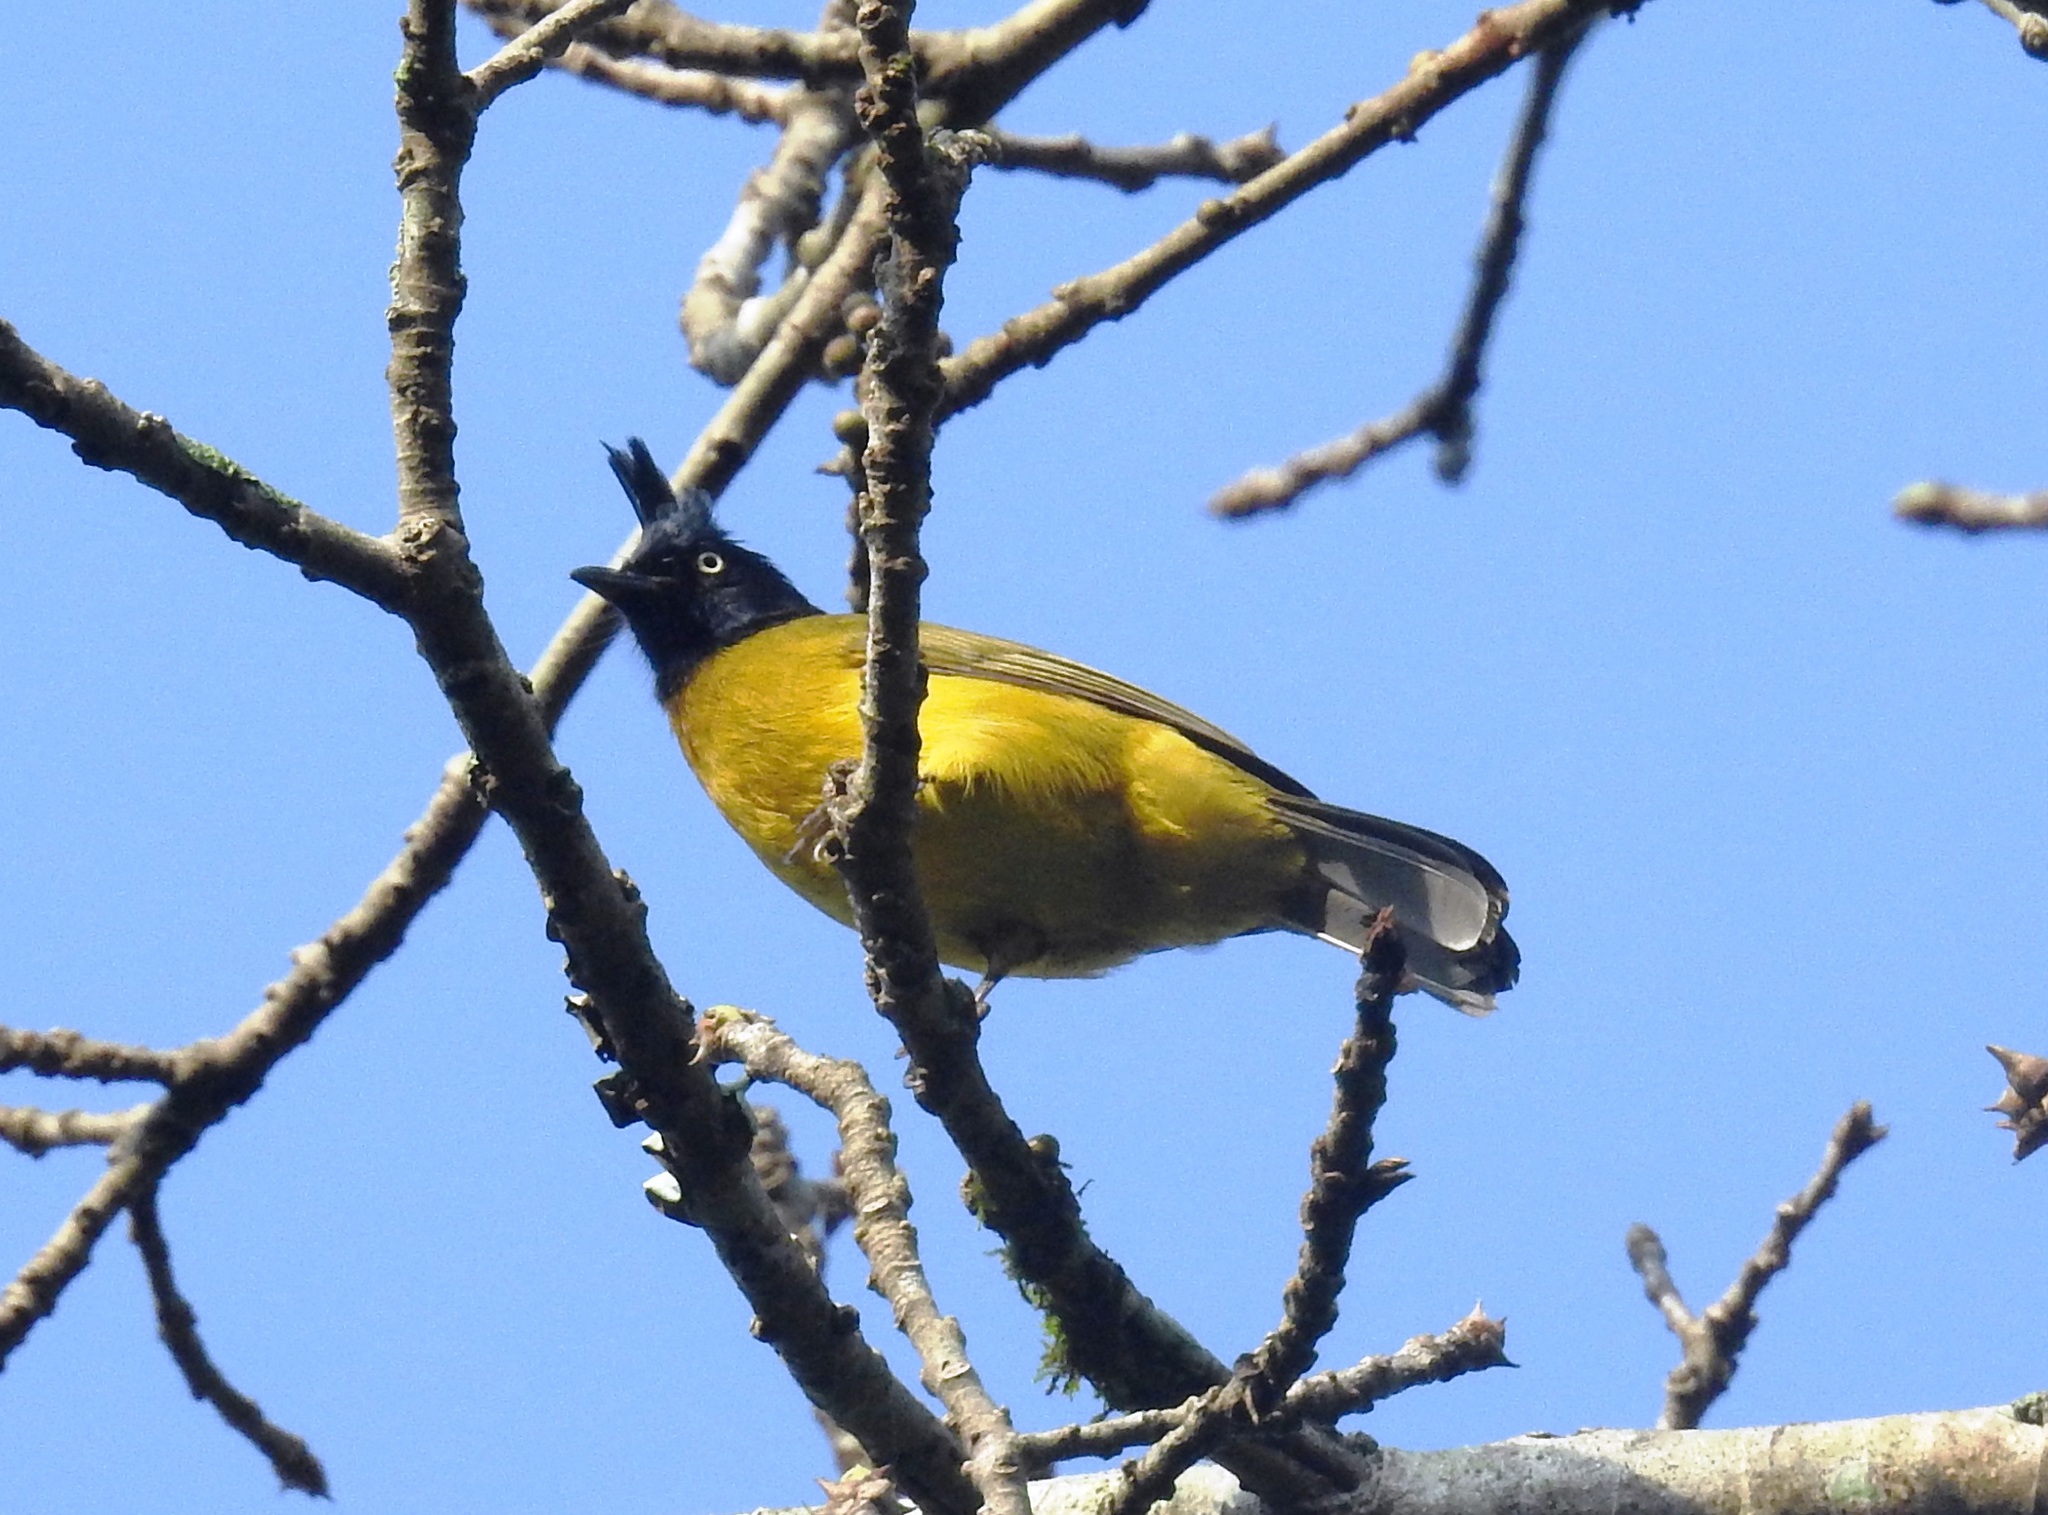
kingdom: Animalia
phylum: Chordata
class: Aves
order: Passeriformes
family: Pycnonotidae
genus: Pycnonotus
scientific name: Pycnonotus flaviventris
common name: Black-crested bulbul
